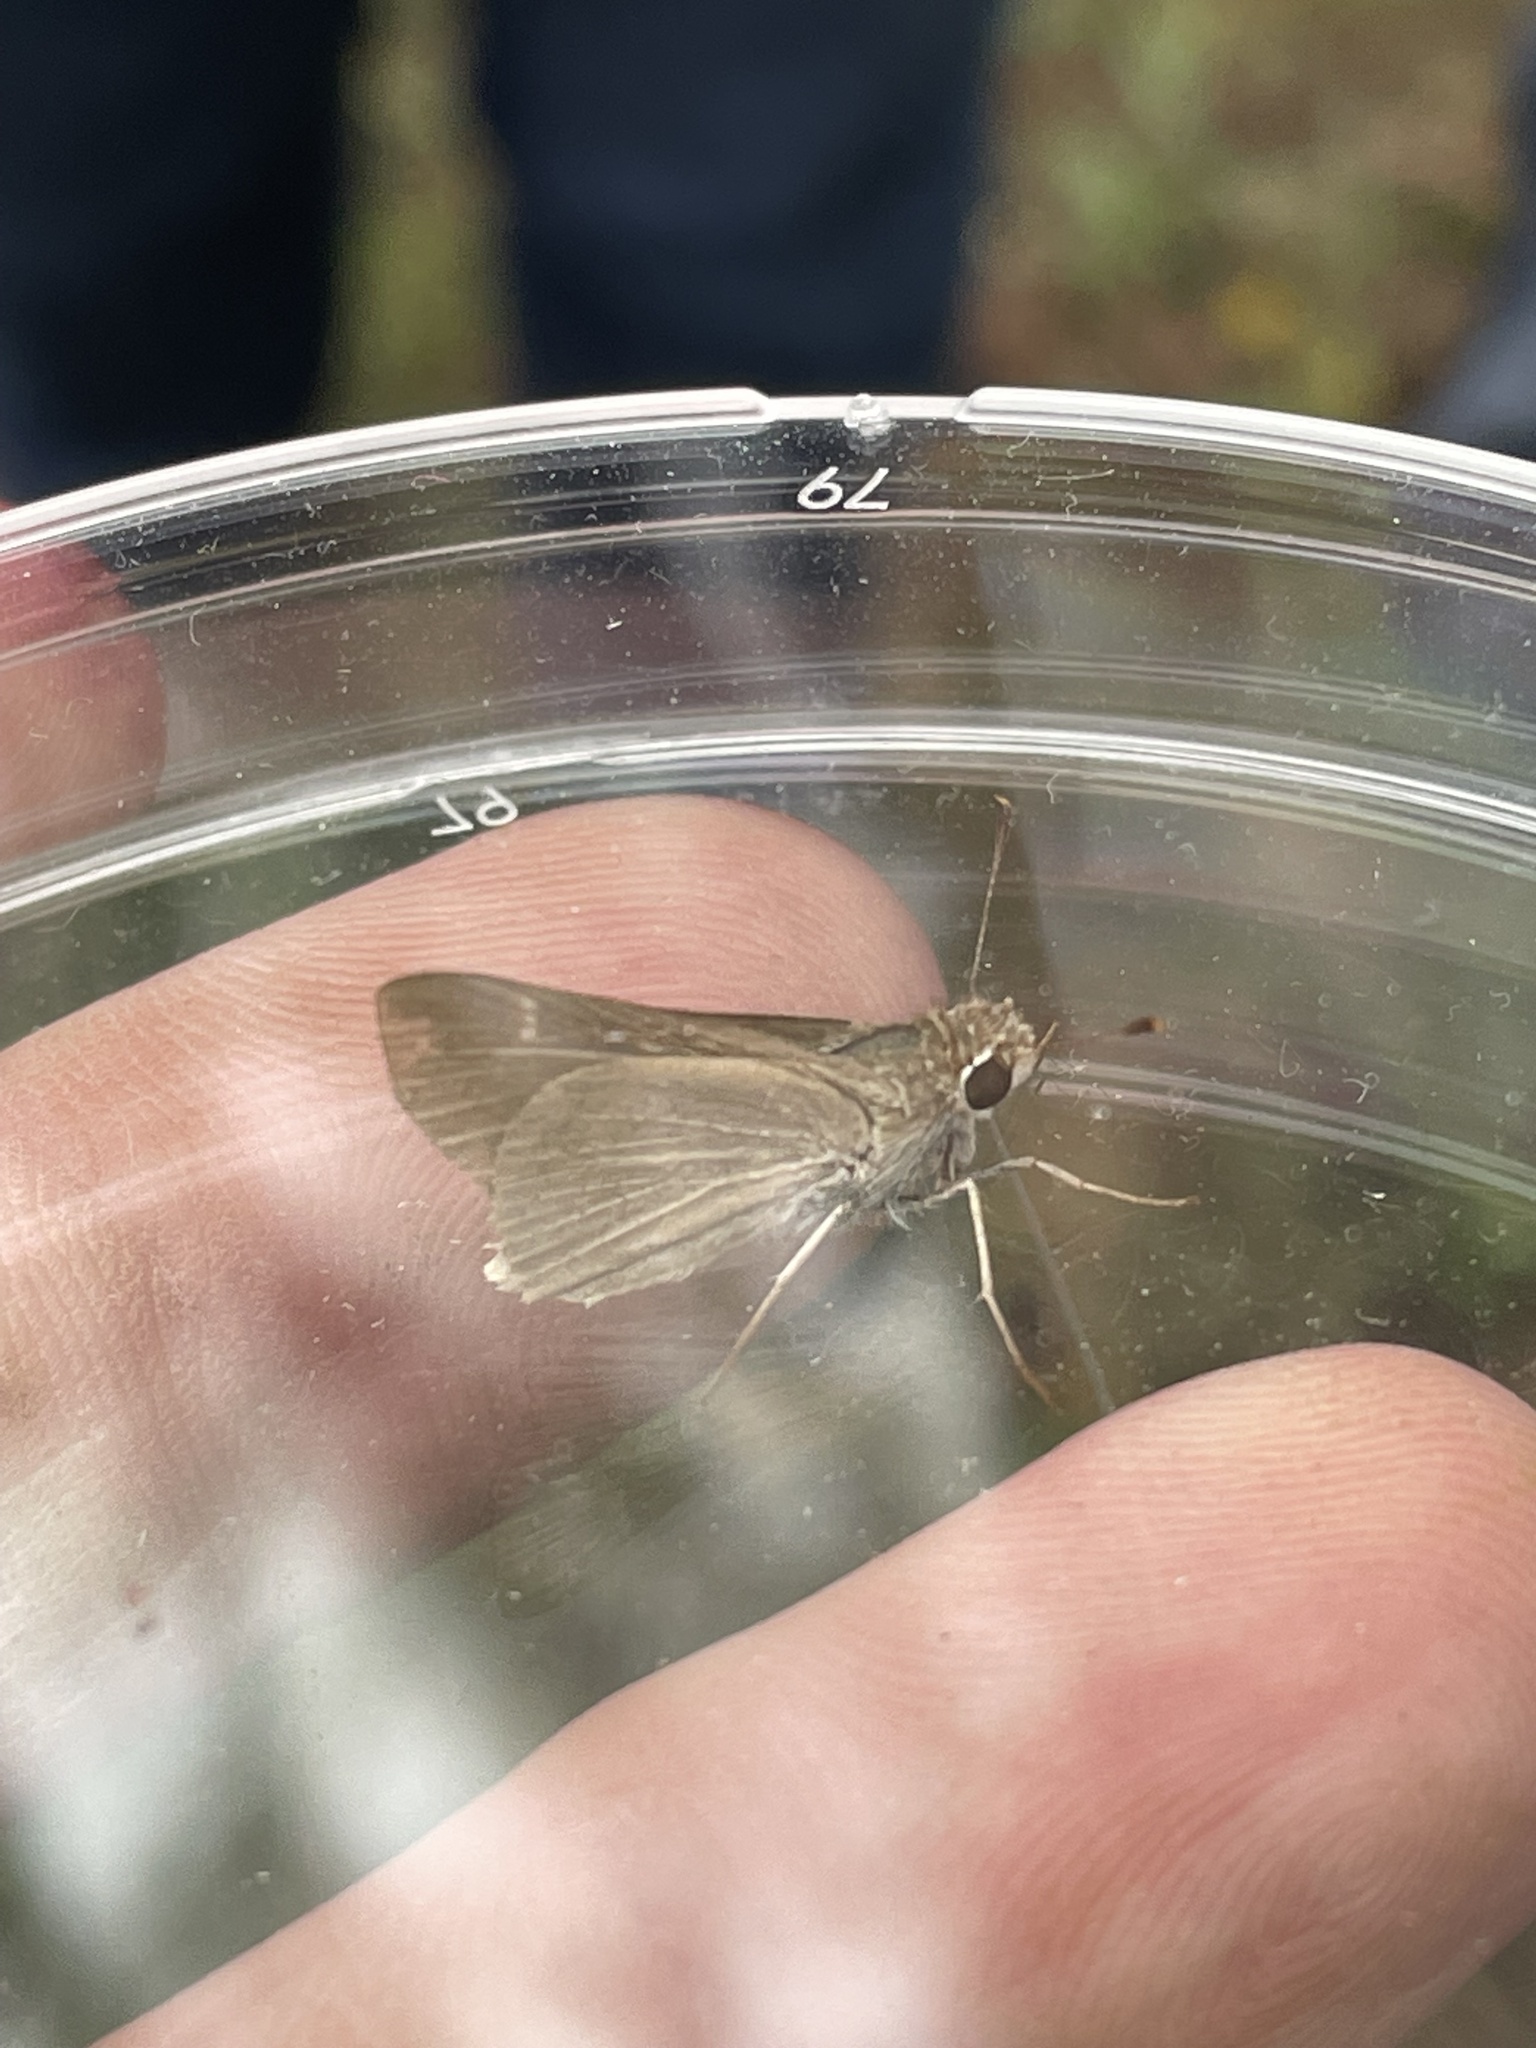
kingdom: Animalia
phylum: Arthropoda
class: Insecta
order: Lepidoptera
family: Hesperiidae
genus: Lerodea
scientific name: Lerodea eufala
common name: Eufala skipper
